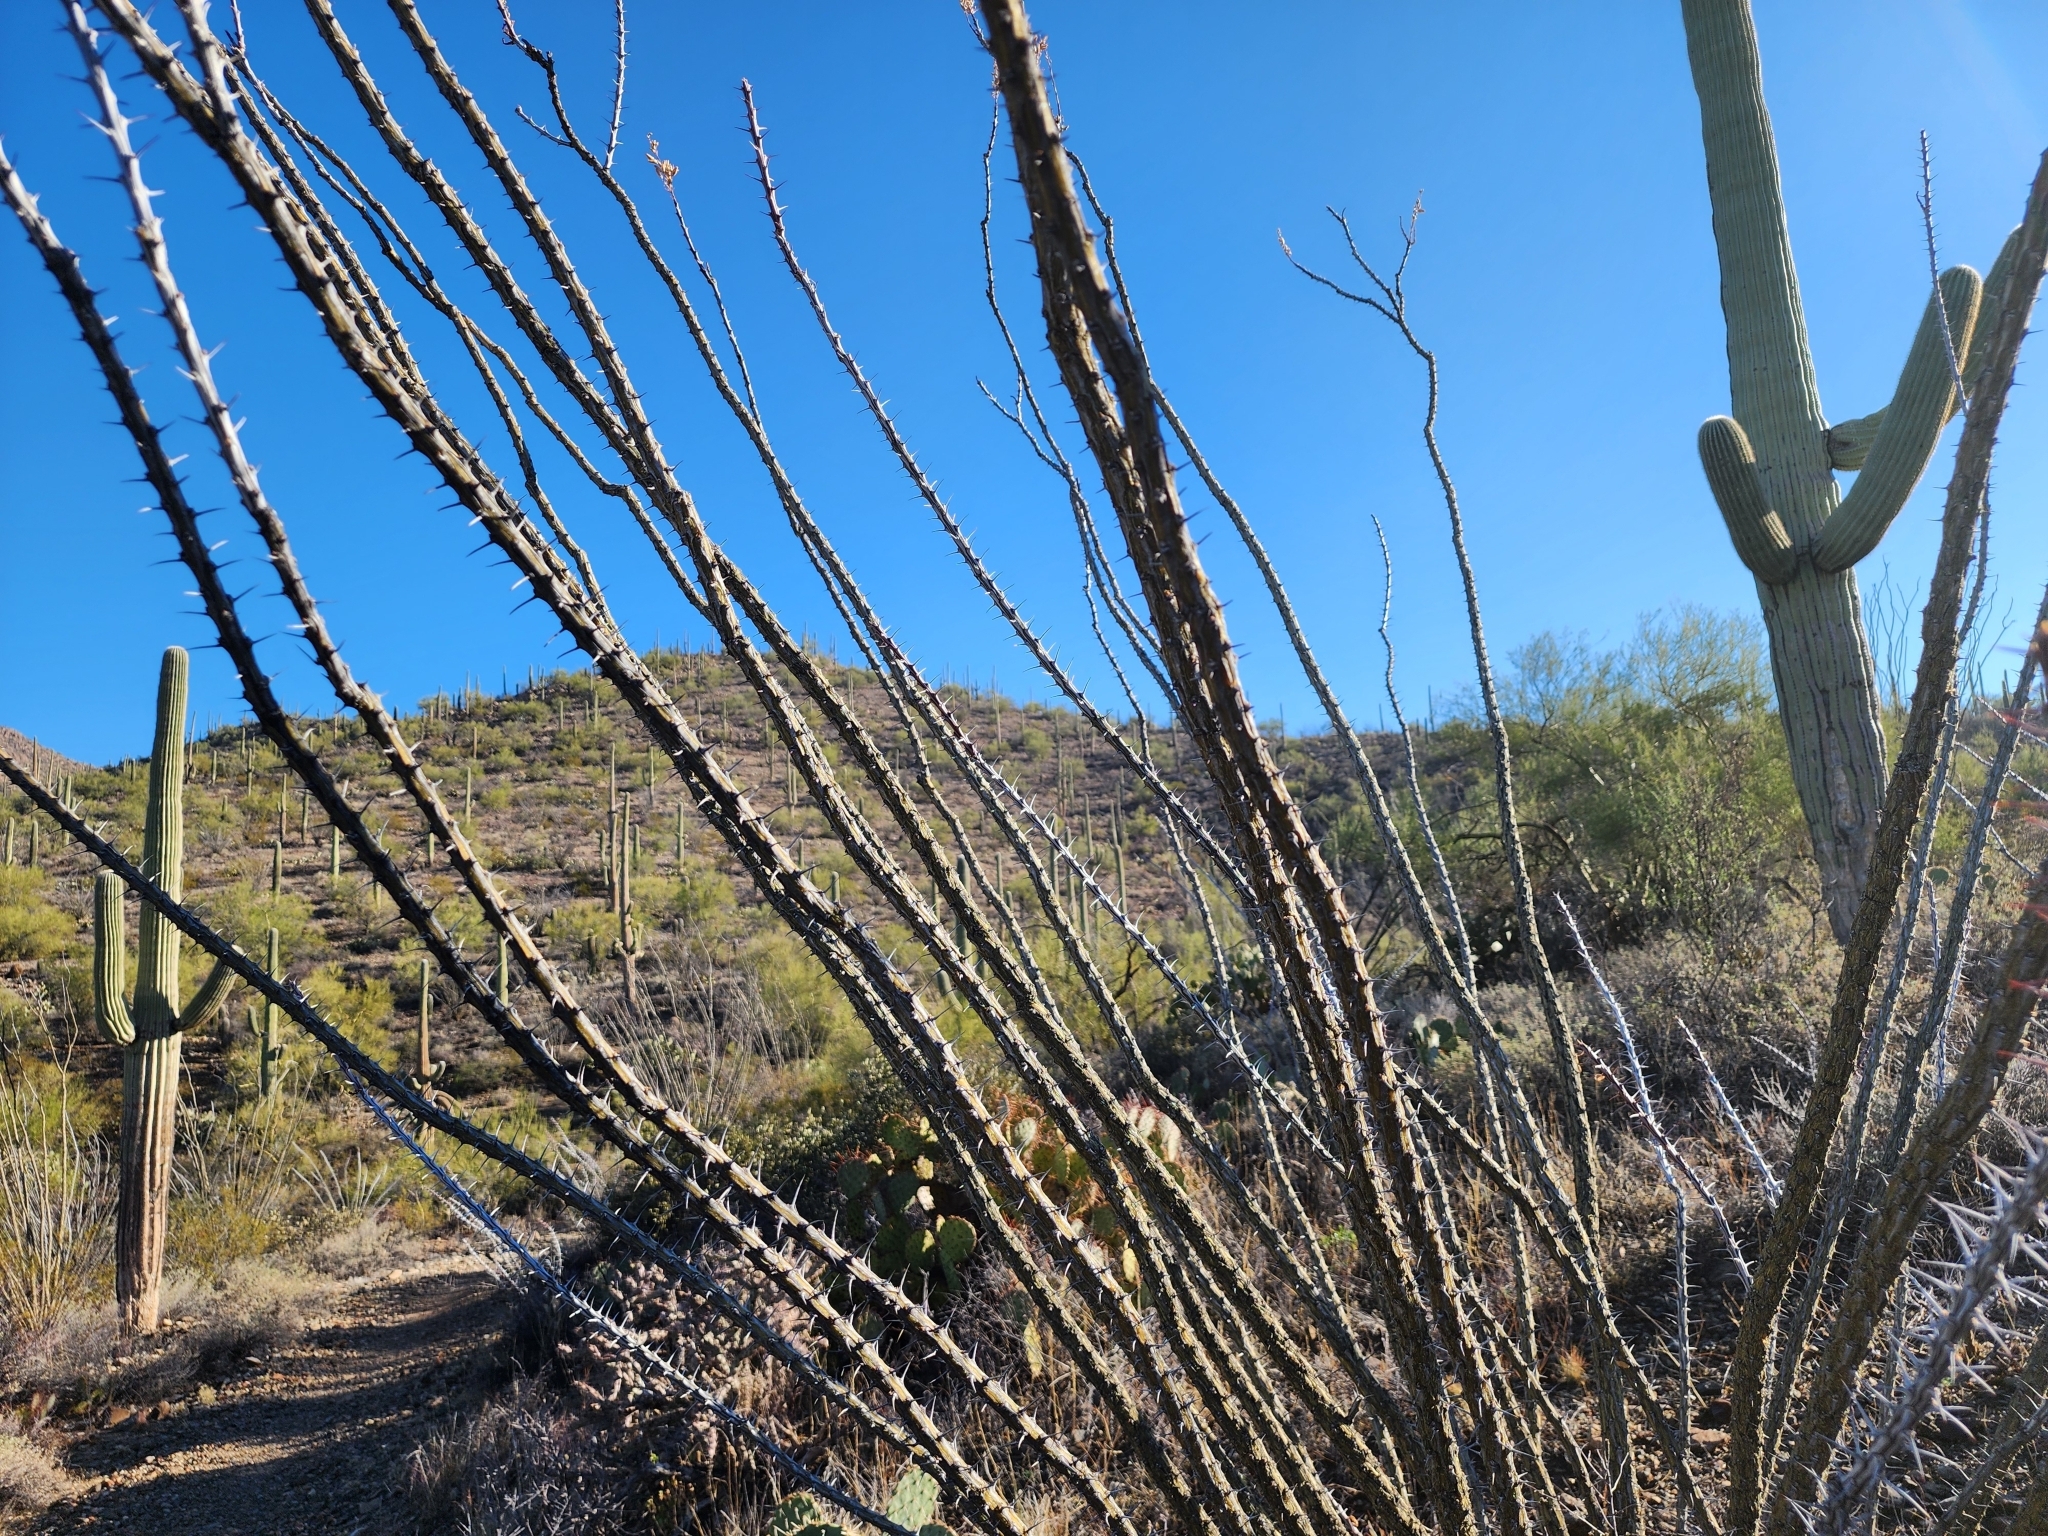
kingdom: Plantae
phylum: Tracheophyta
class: Magnoliopsida
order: Ericales
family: Fouquieriaceae
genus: Fouquieria
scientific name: Fouquieria splendens
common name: Vine-cactus
